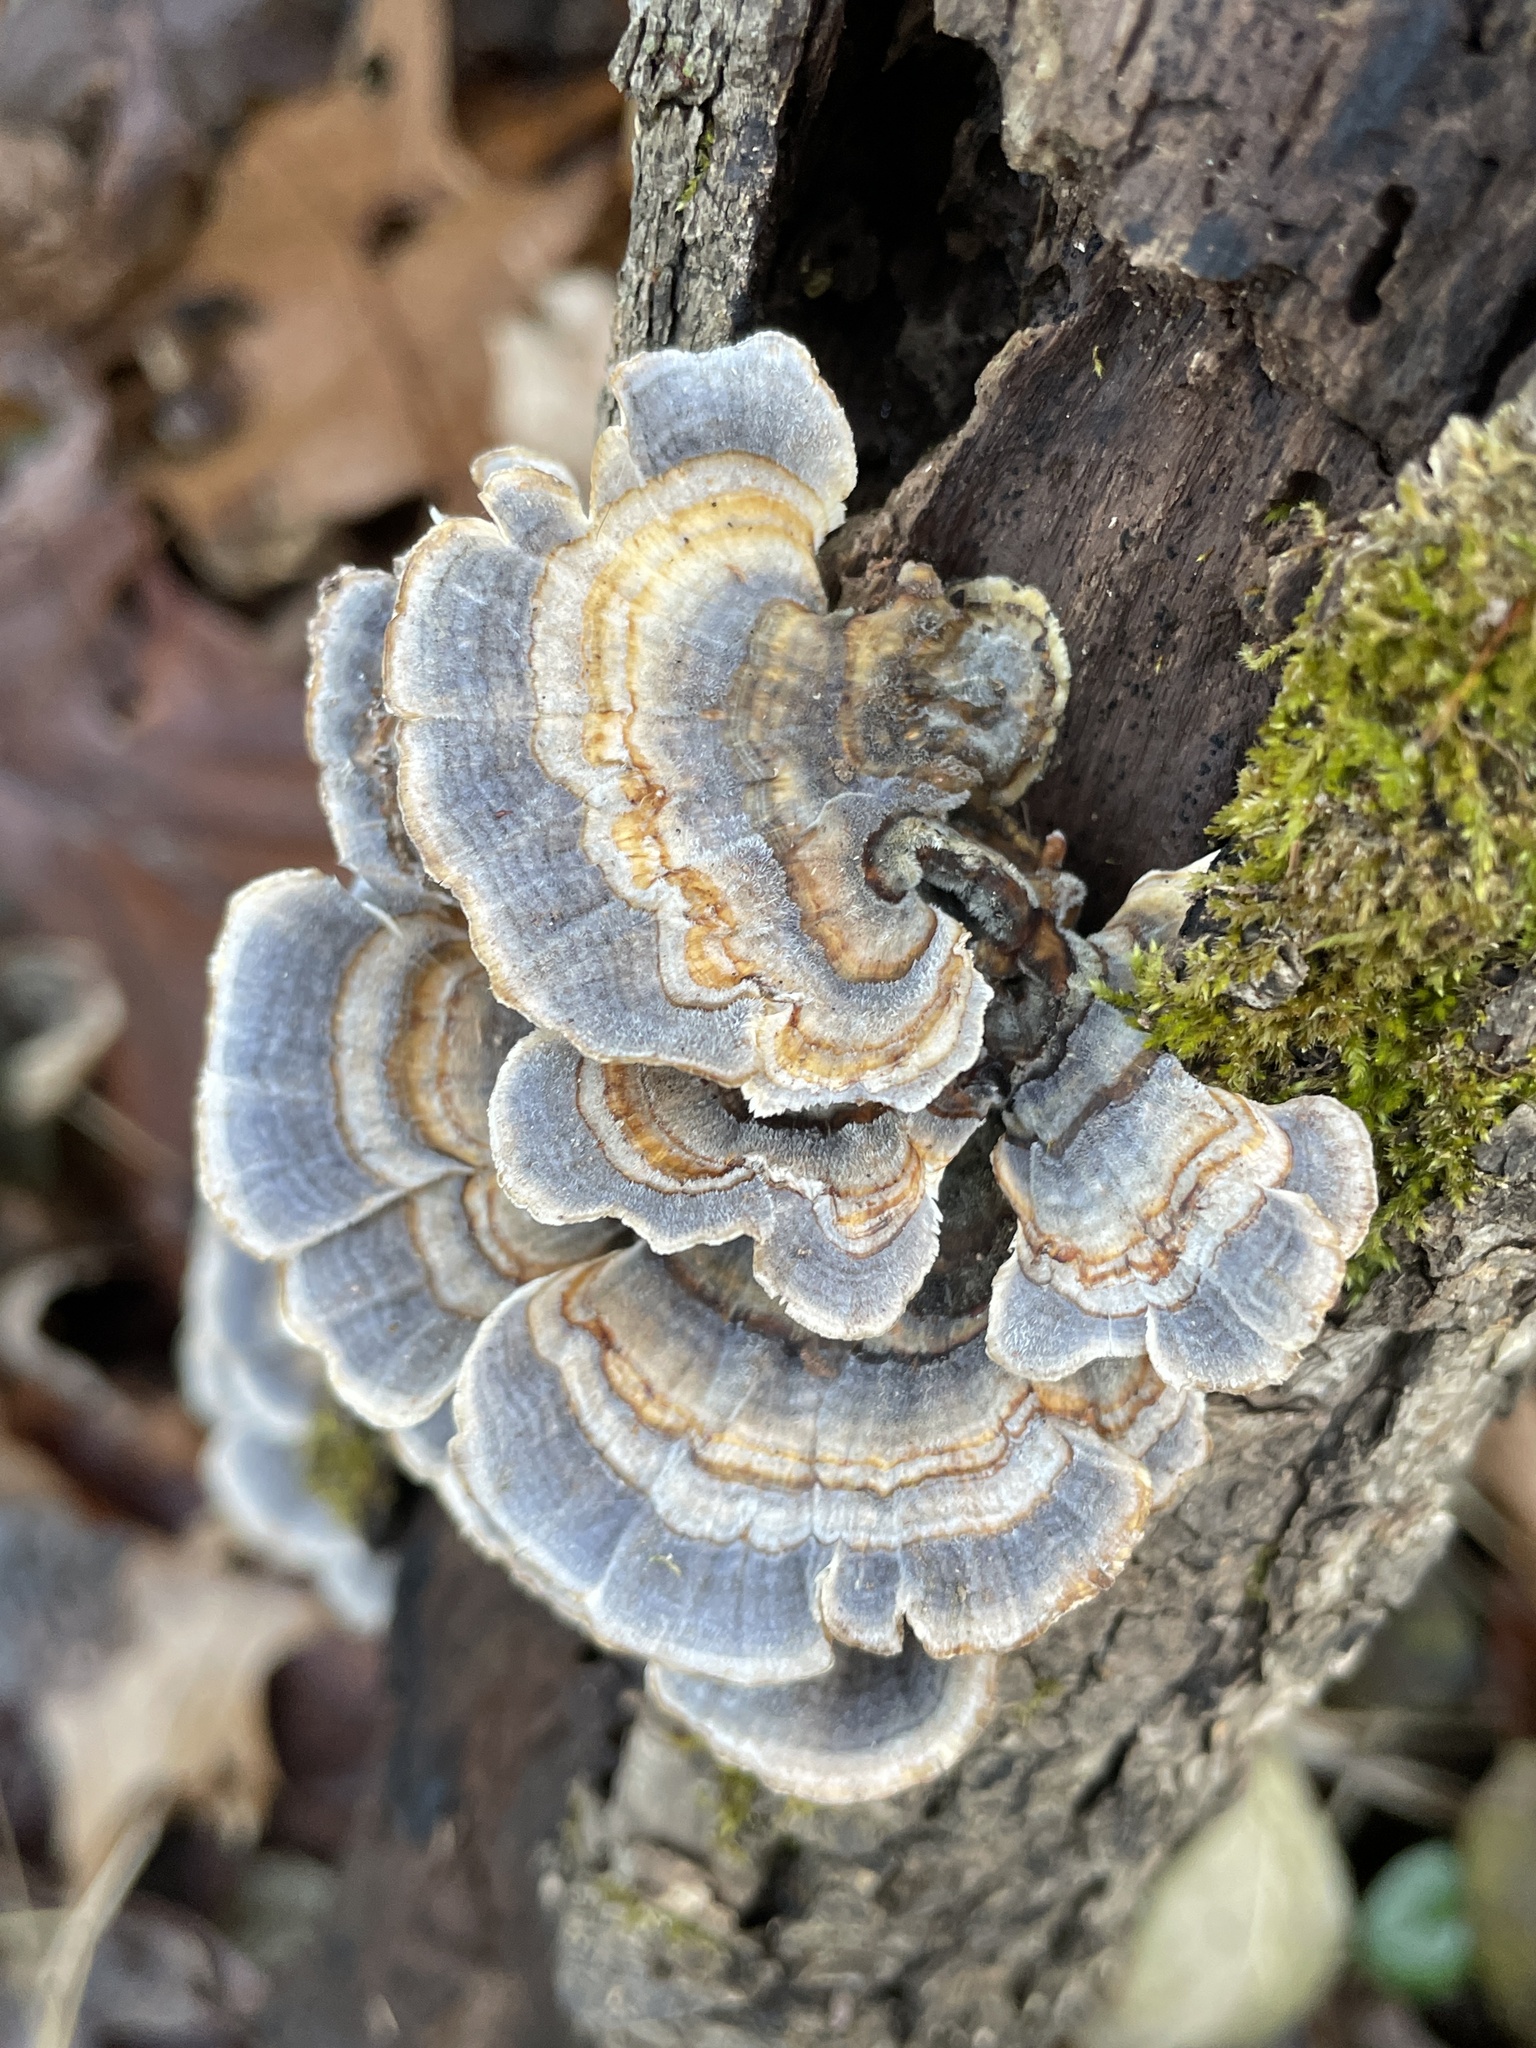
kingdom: Fungi
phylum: Basidiomycota
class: Agaricomycetes
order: Polyporales
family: Polyporaceae
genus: Trametes
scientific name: Trametes versicolor
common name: Turkeytail
